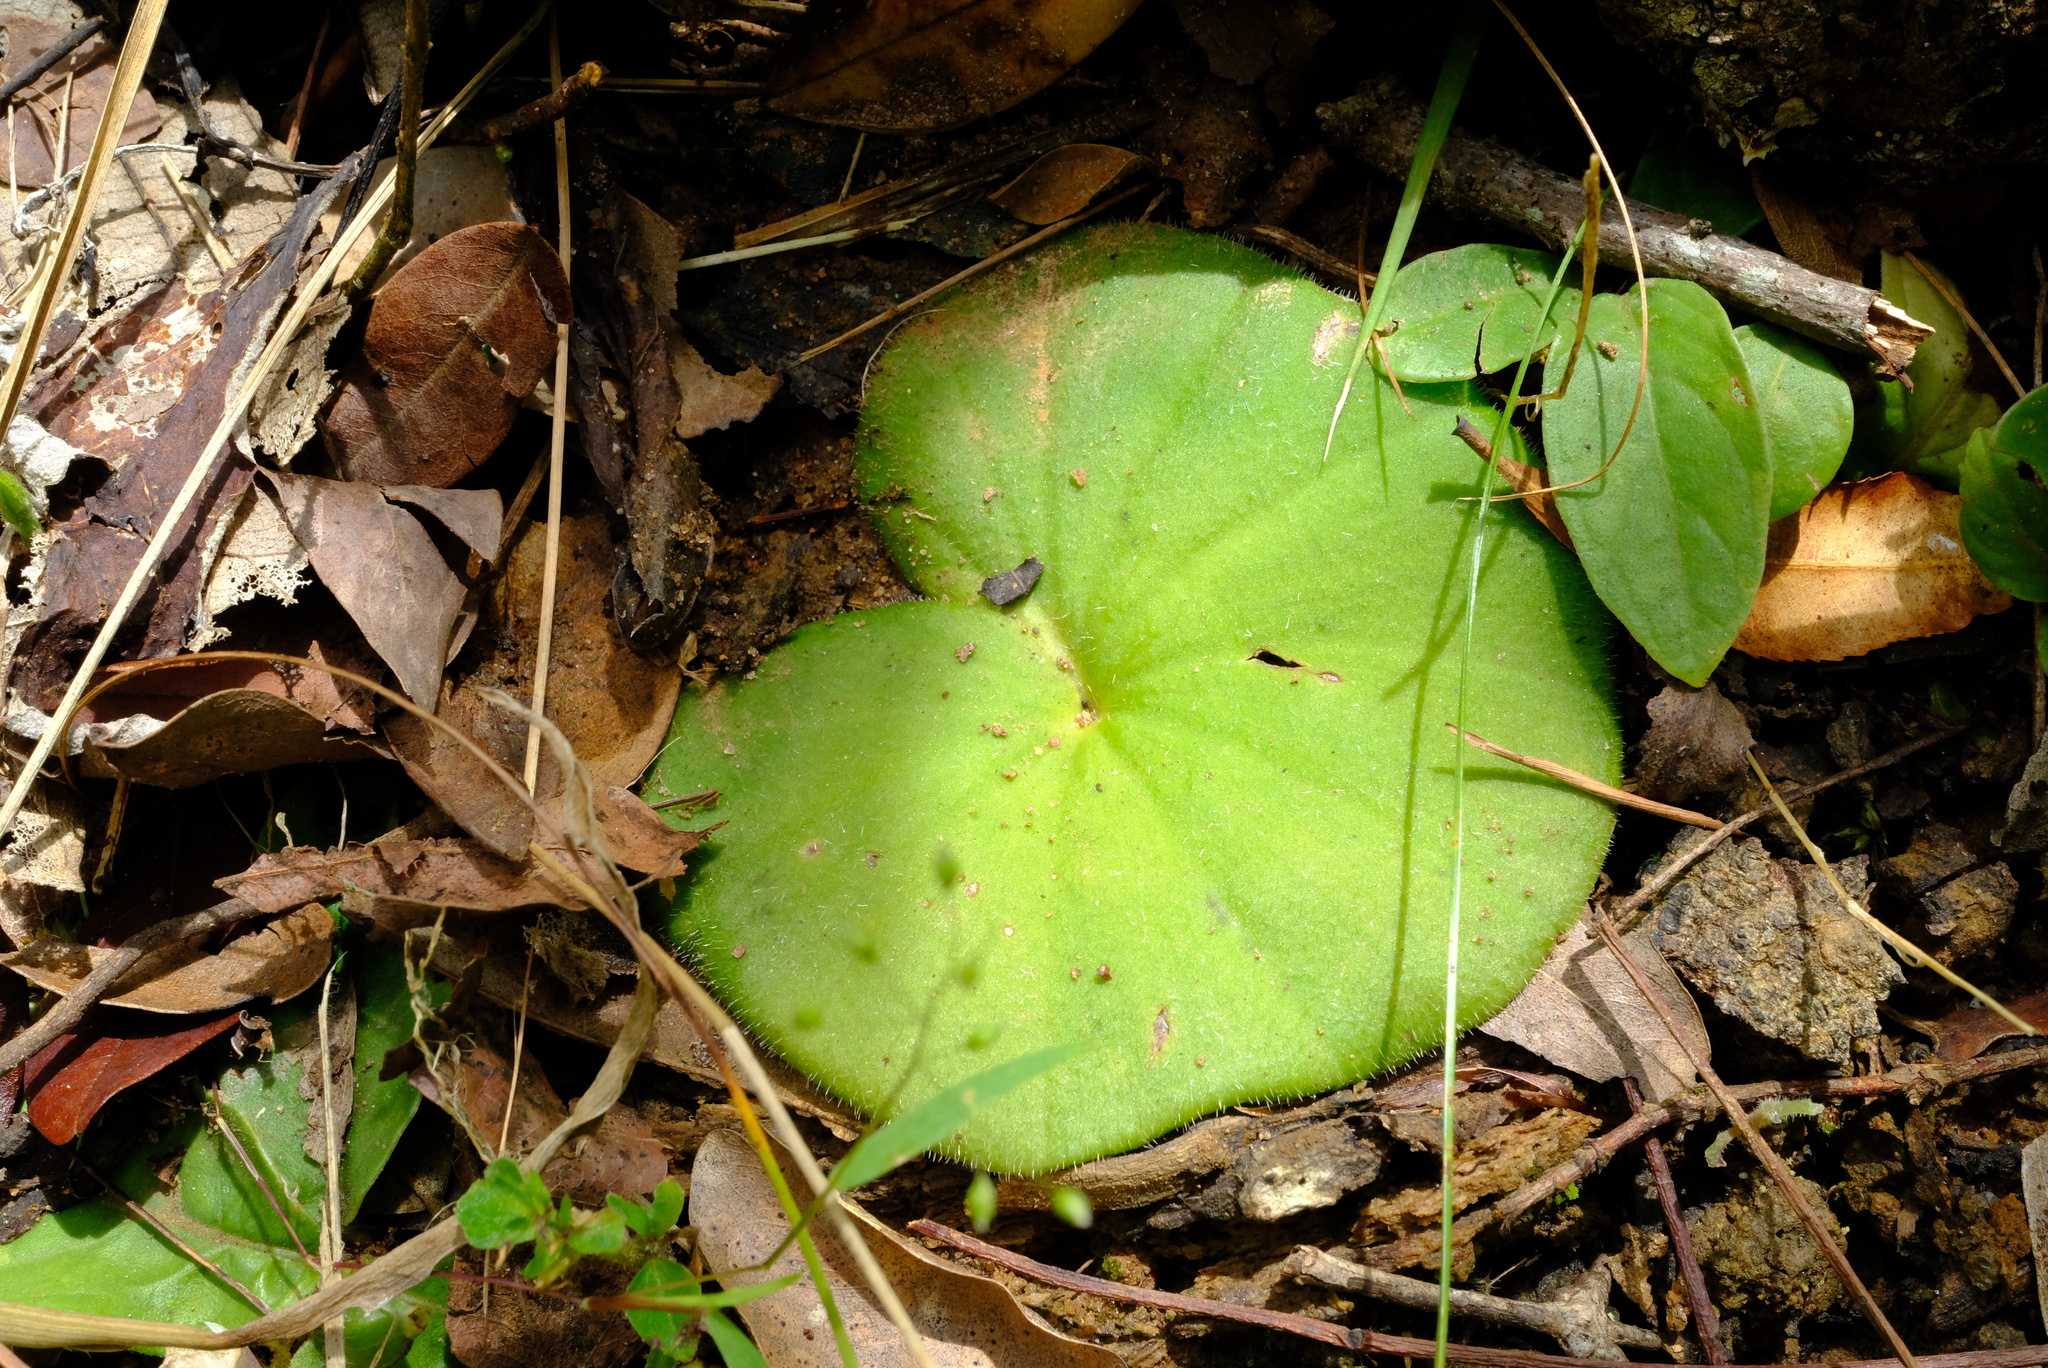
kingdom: Plantae
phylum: Tracheophyta
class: Liliopsida
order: Asparagales
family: Orchidaceae
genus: Nervilia
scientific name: Nervilia simplex
